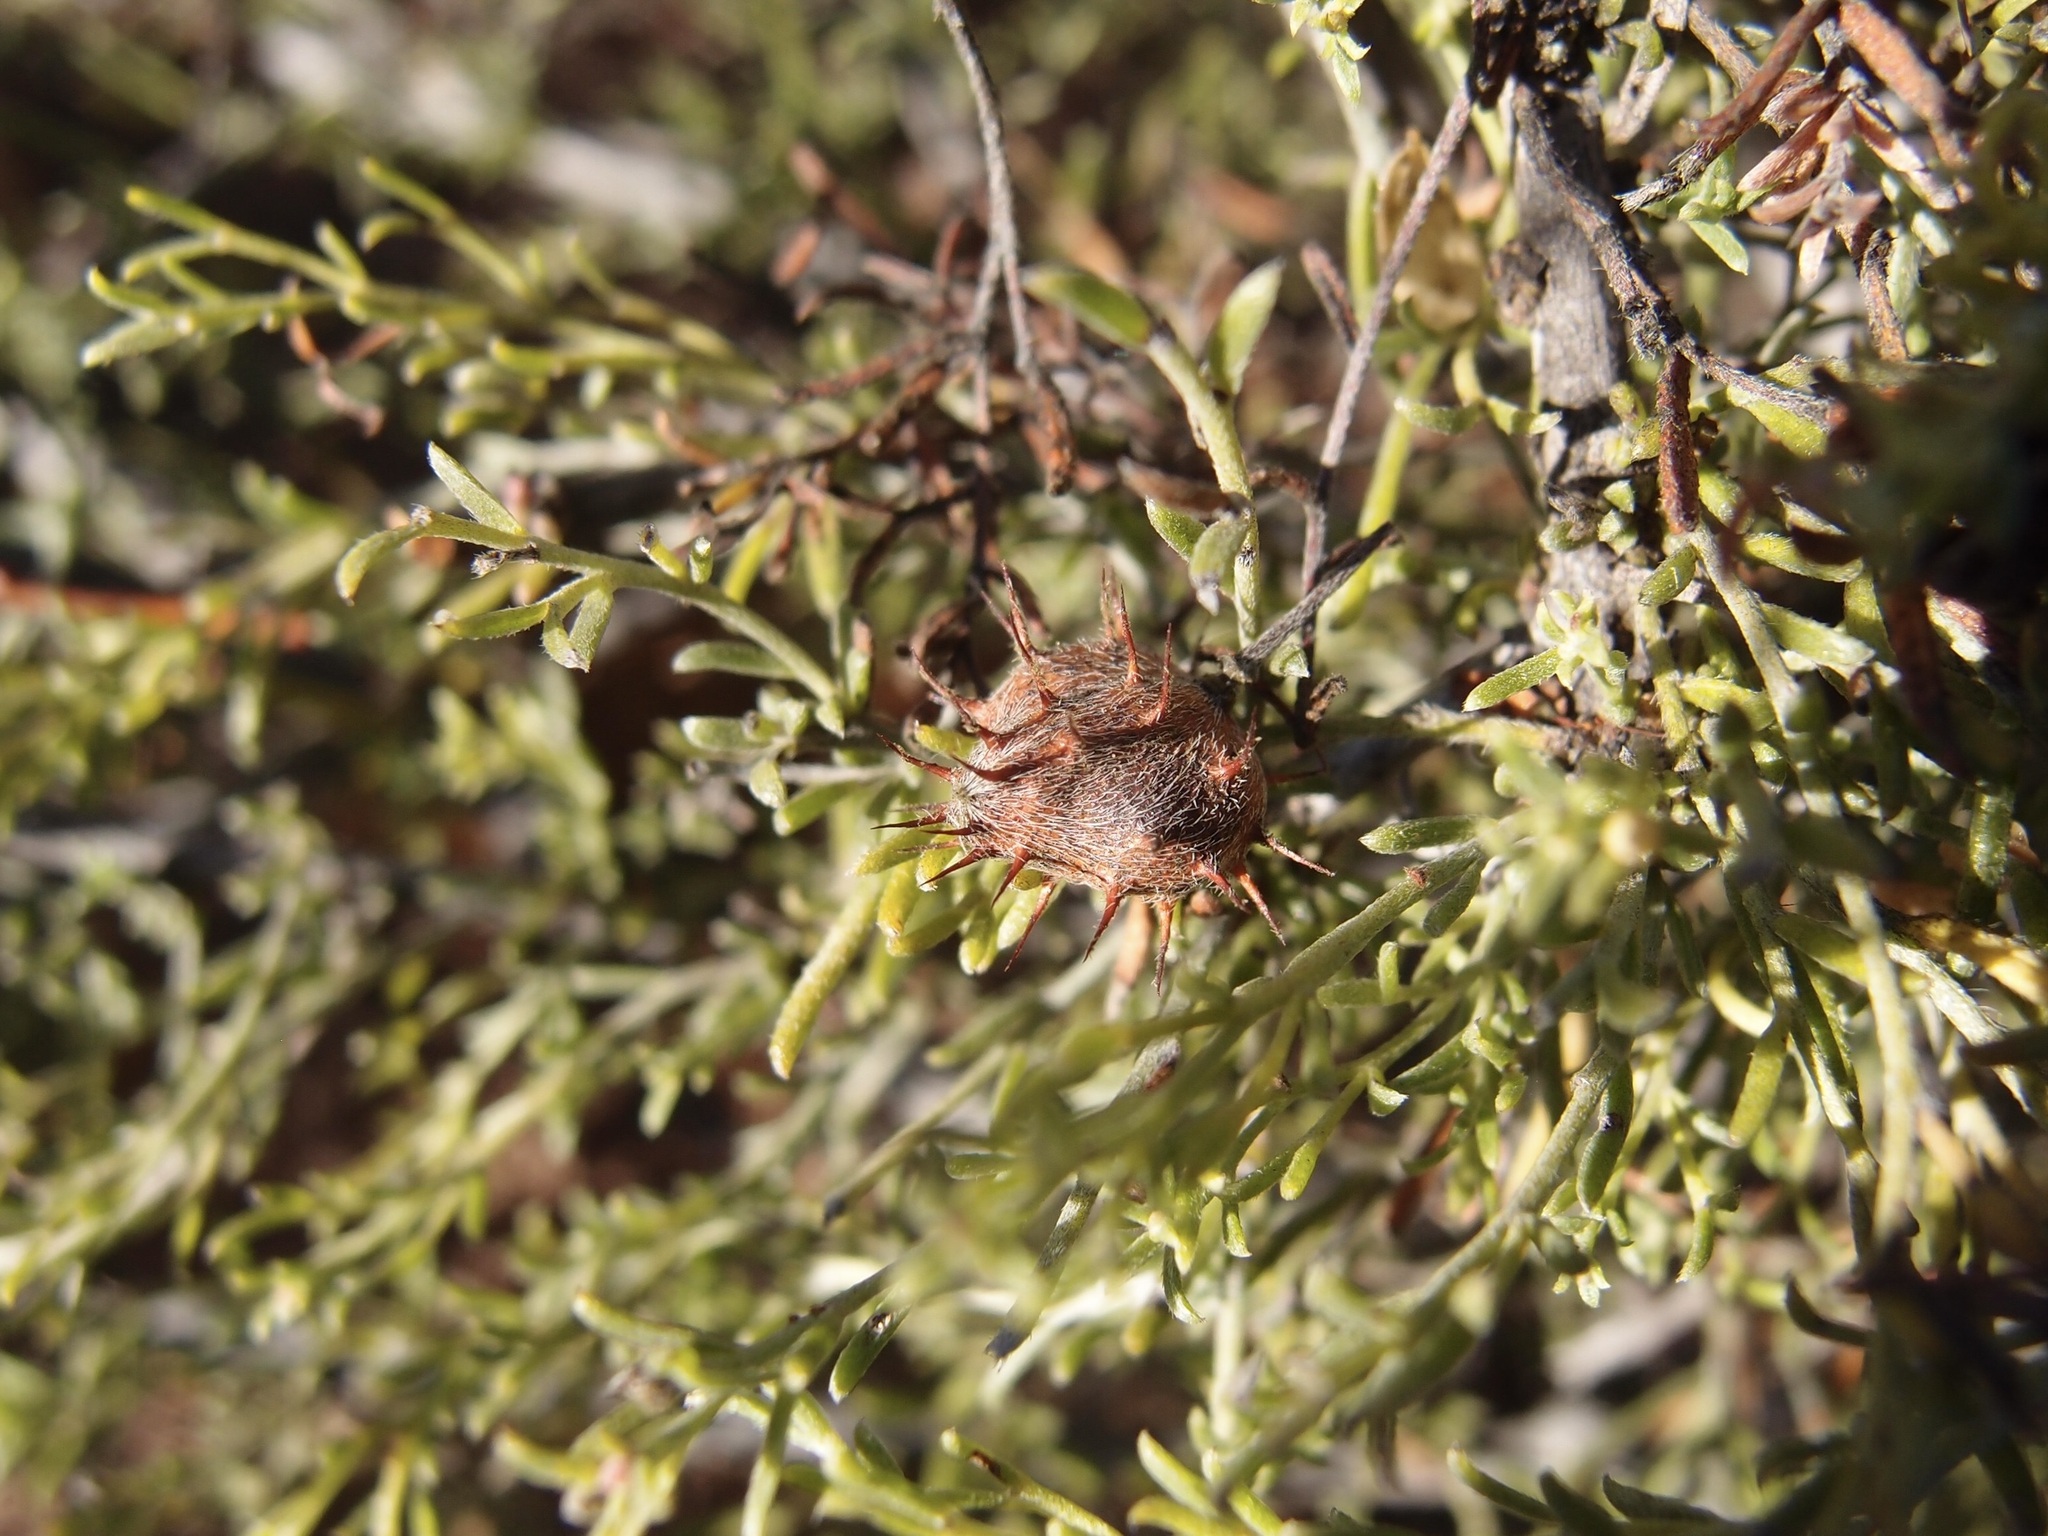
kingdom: Plantae
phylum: Tracheophyta
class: Magnoliopsida
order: Zygophyllales
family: Krameriaceae
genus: Krameria
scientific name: Krameria erecta
